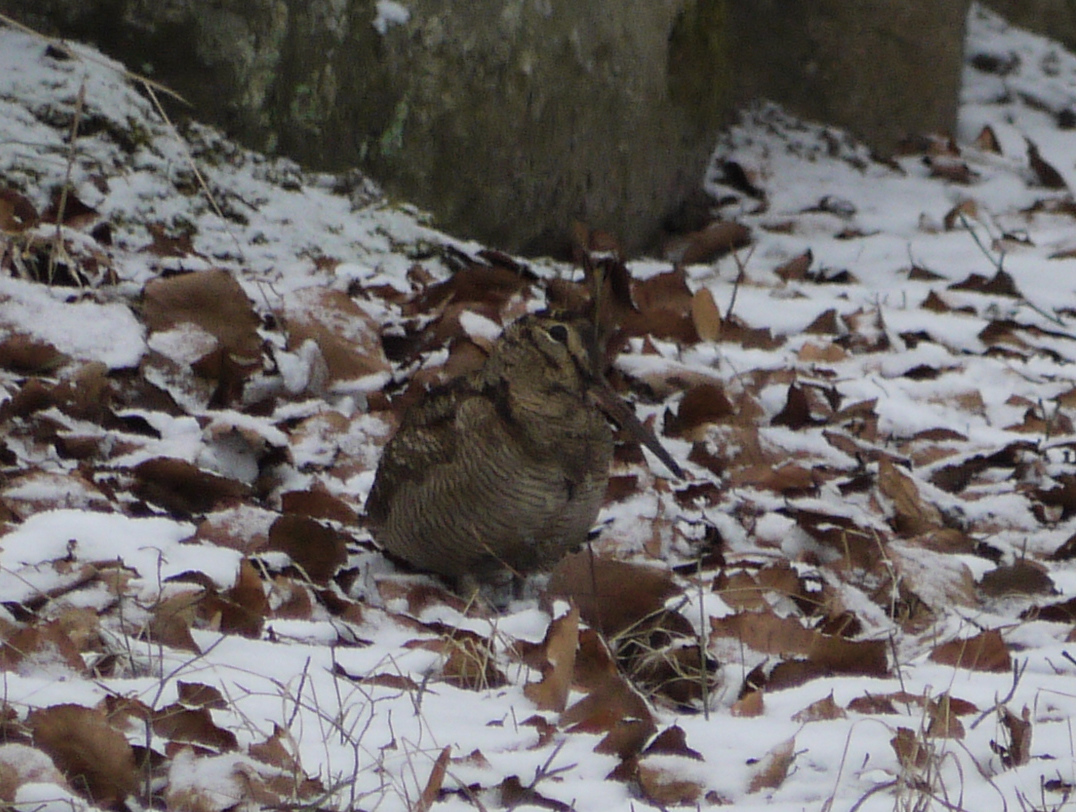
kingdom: Animalia
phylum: Chordata
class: Aves
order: Charadriiformes
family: Scolopacidae
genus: Scolopax
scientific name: Scolopax rusticola
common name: Eurasian woodcock
